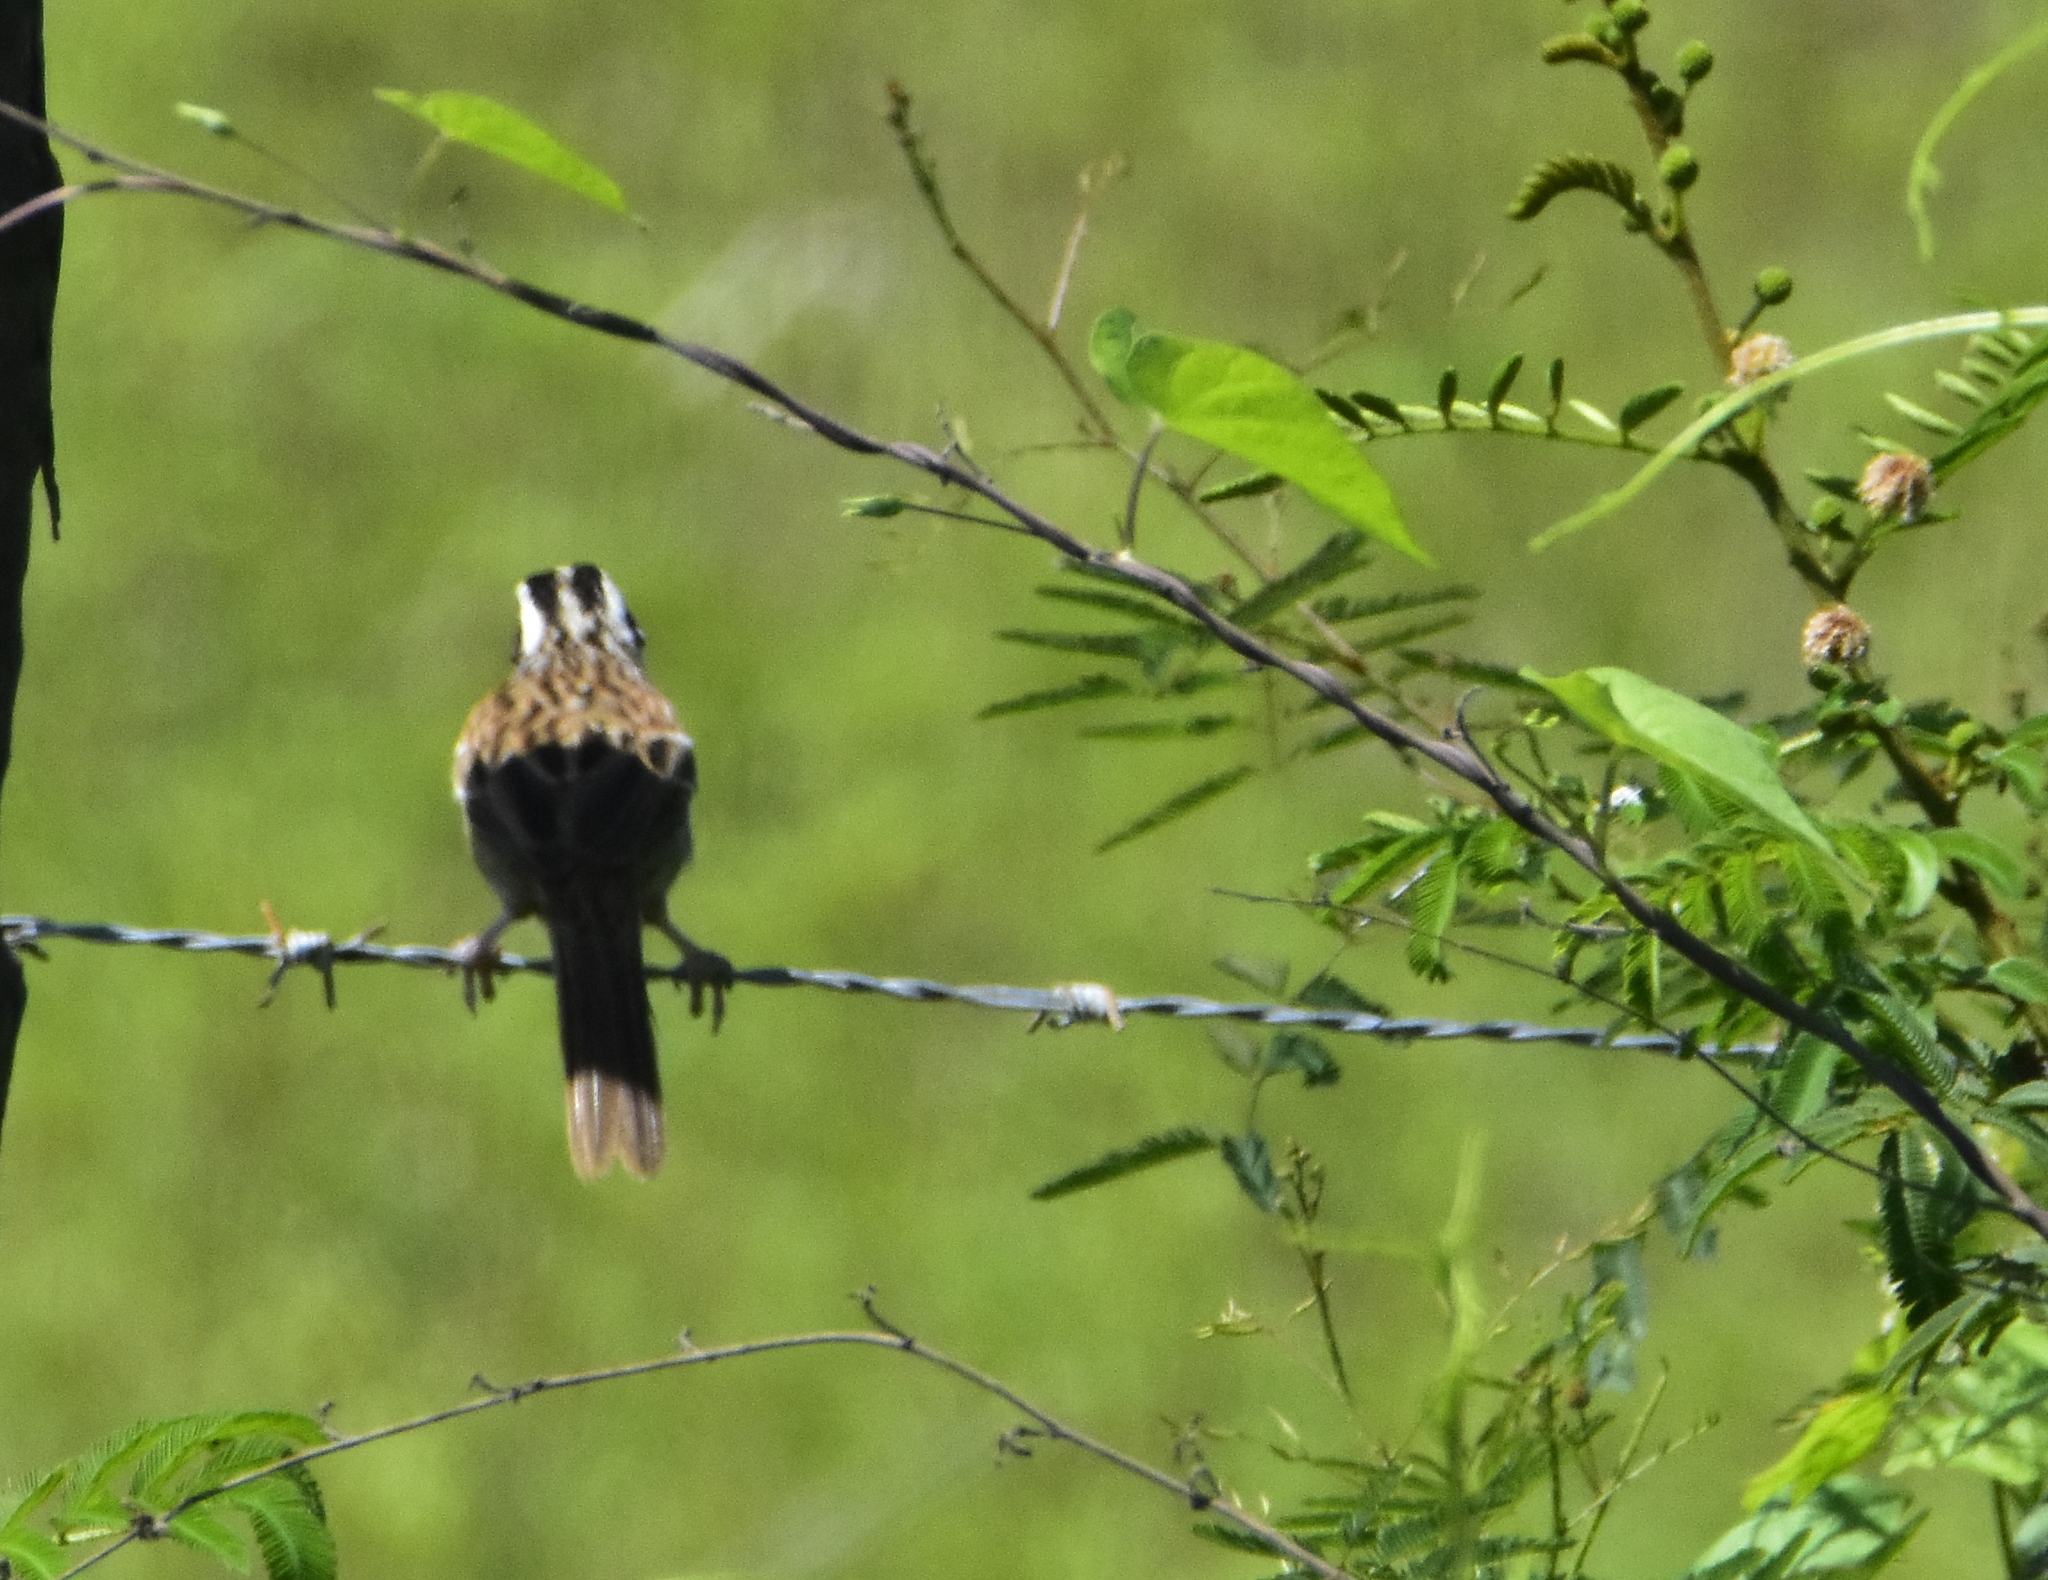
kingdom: Animalia
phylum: Chordata
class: Aves
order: Passeriformes
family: Passerellidae
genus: Peucaea
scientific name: Peucaea ruficauda
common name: Stripe-headed sparrow
